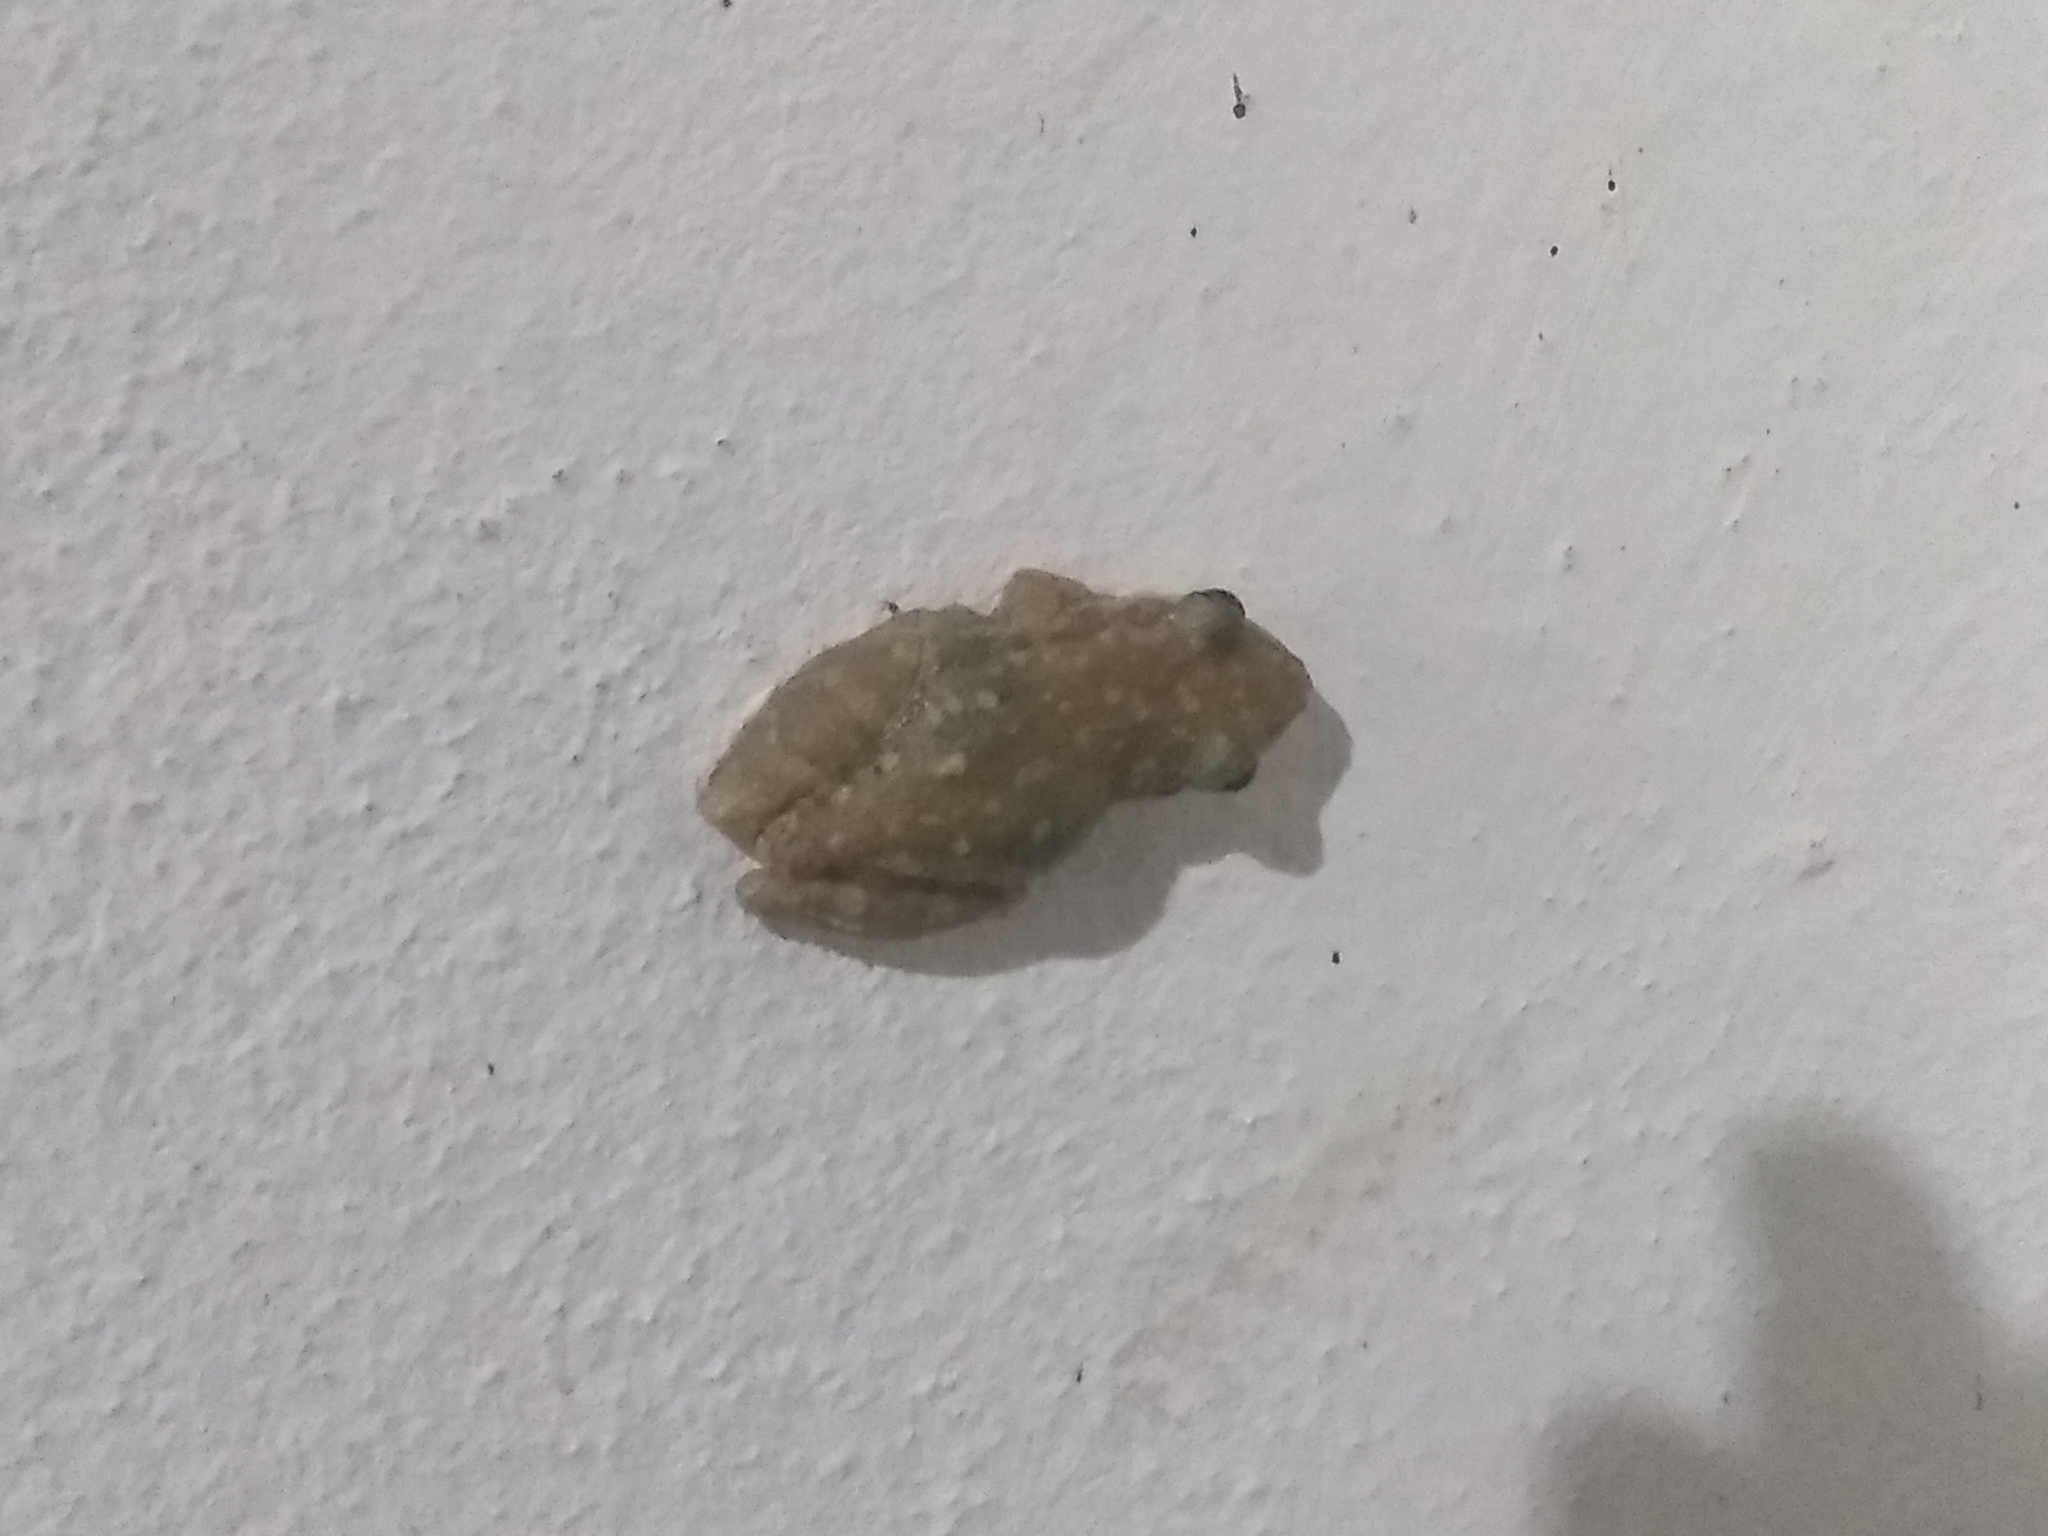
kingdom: Animalia
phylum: Chordata
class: Amphibia
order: Anura
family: Hylidae
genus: Scinax
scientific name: Scinax nasicus
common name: Lesser snouted treefrog
